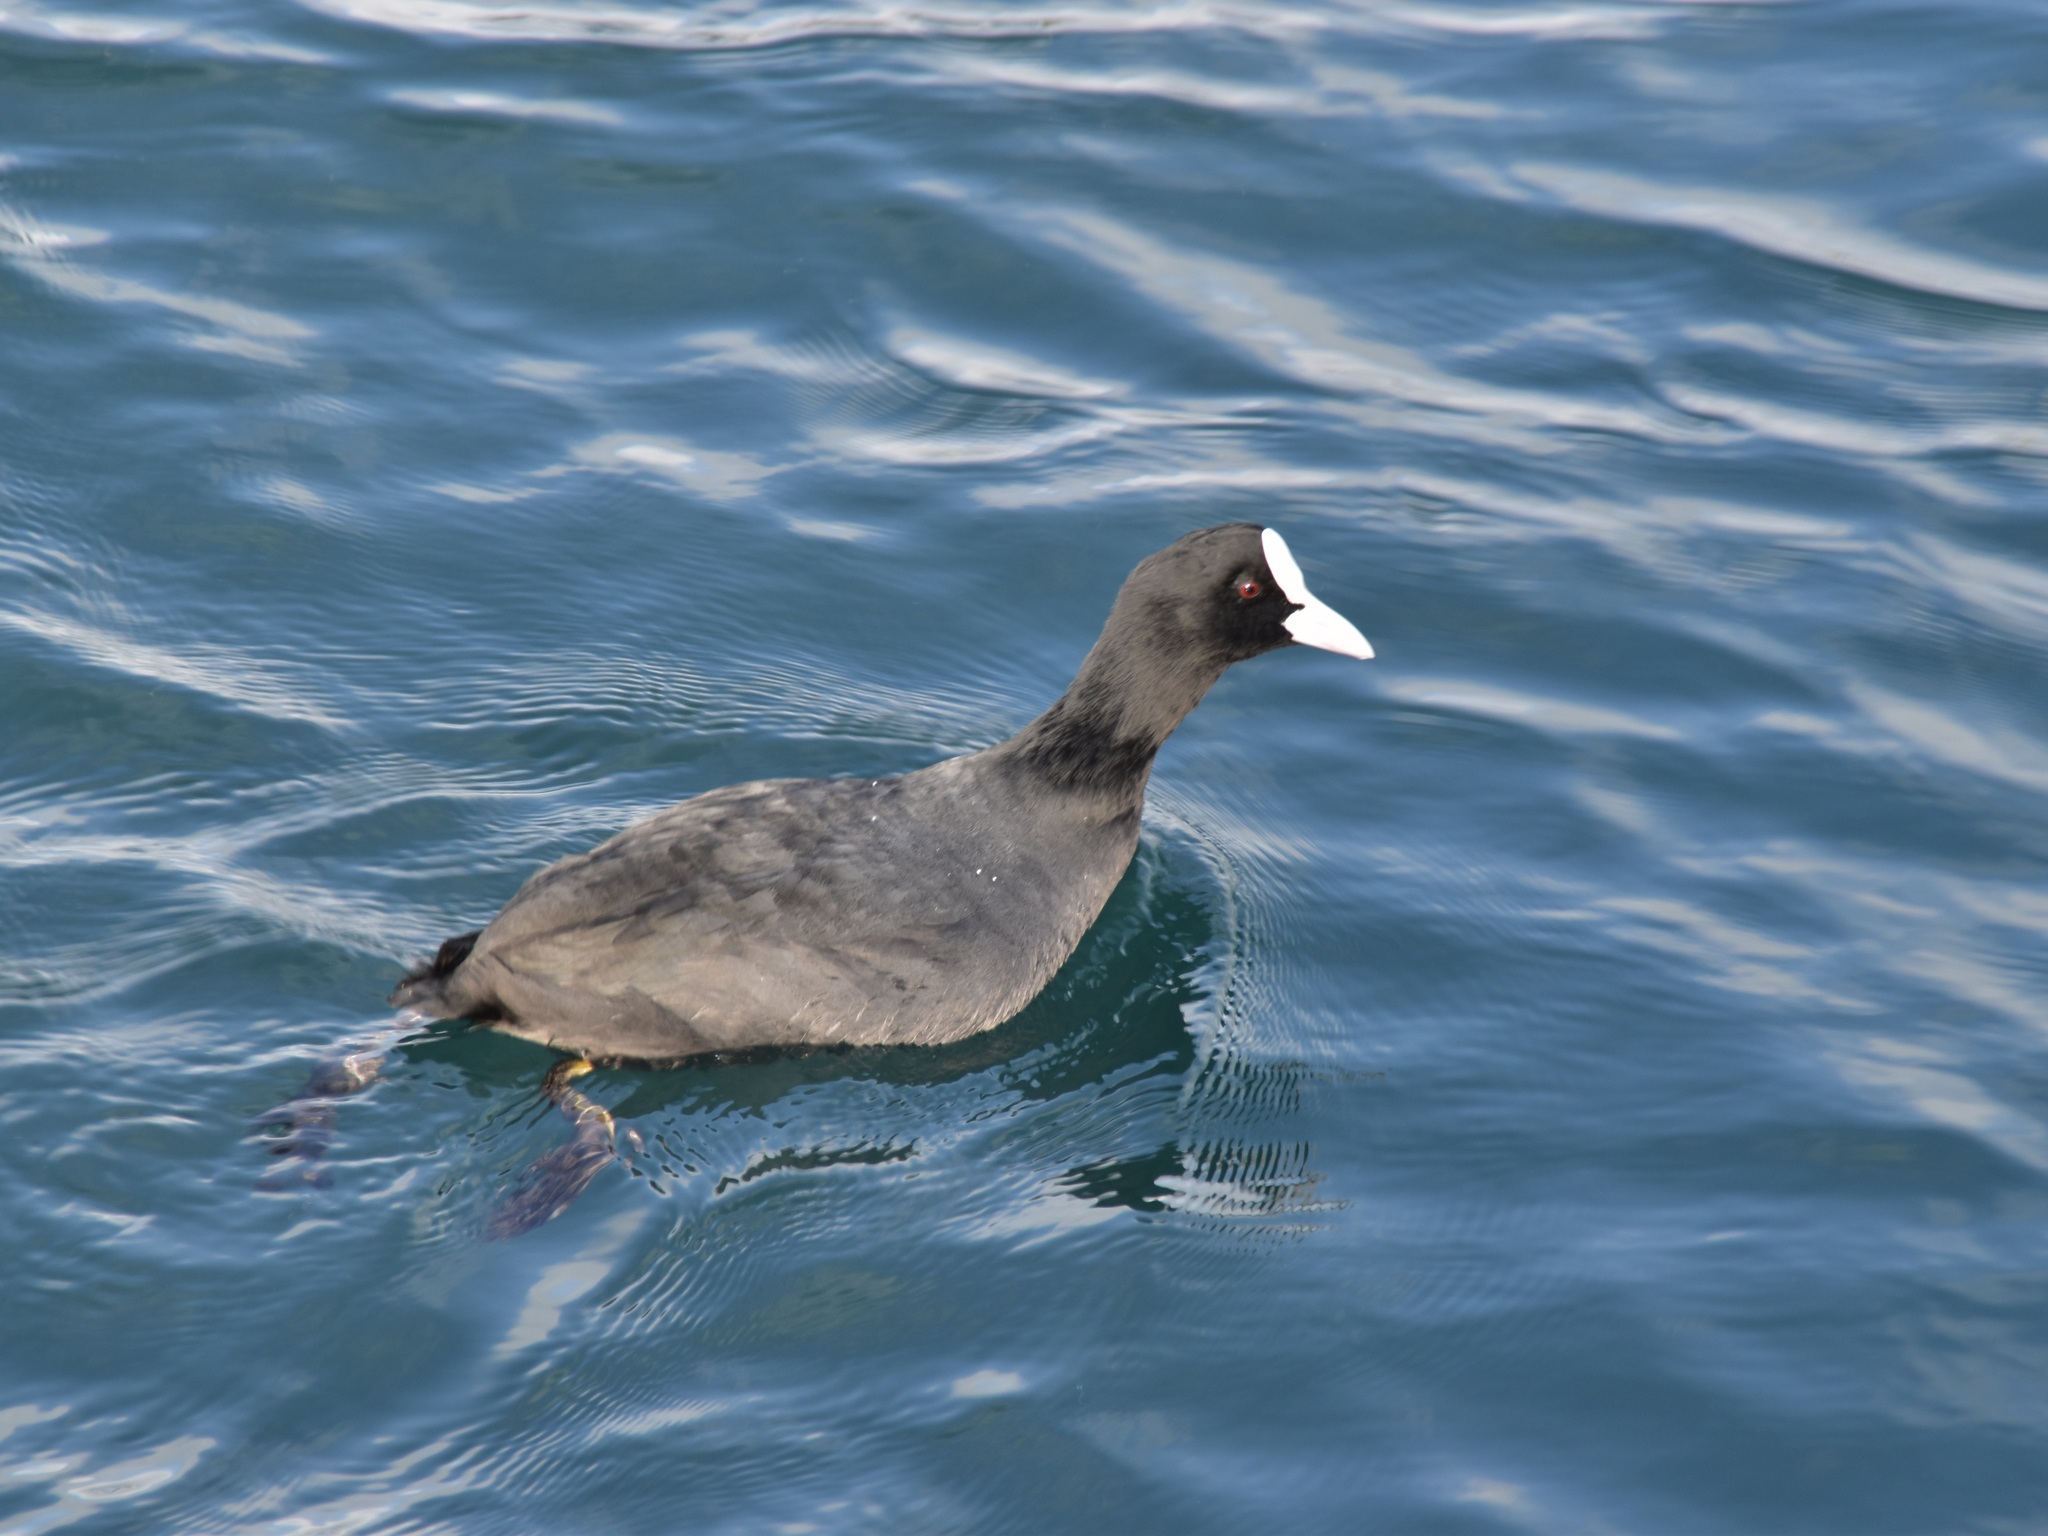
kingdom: Animalia
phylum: Chordata
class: Aves
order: Gruiformes
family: Rallidae
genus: Fulica
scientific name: Fulica atra
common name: Eurasian coot
